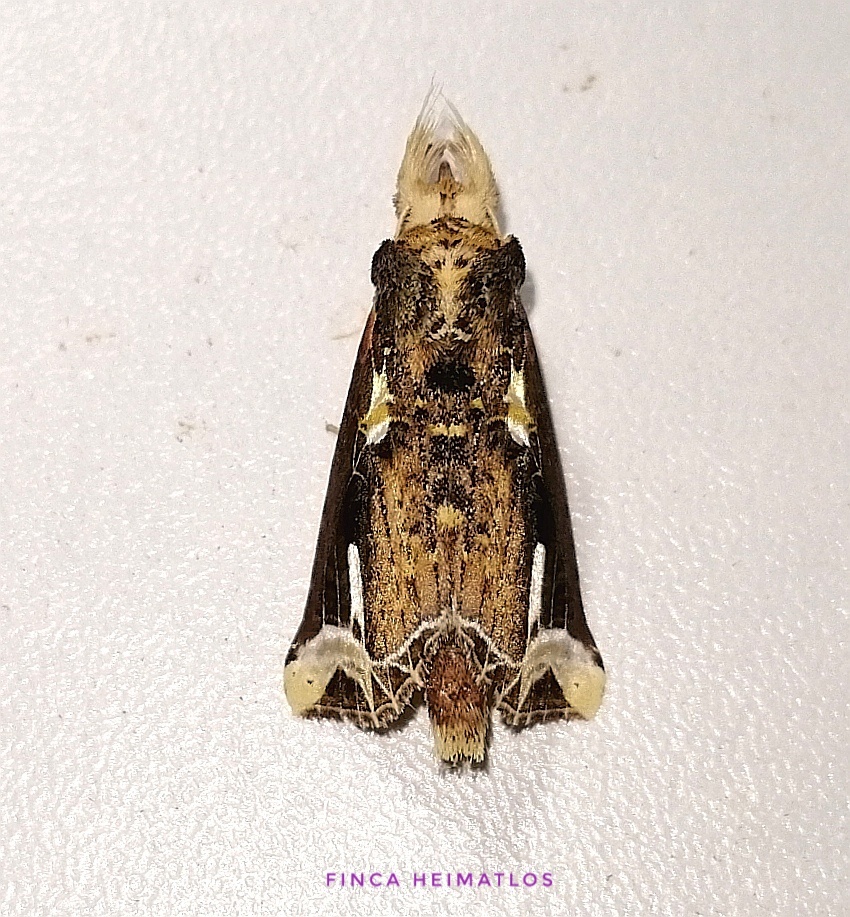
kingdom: Animalia
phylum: Arthropoda
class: Insecta
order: Lepidoptera
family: Notodontidae
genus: Calledema
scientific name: Calledema argenta
